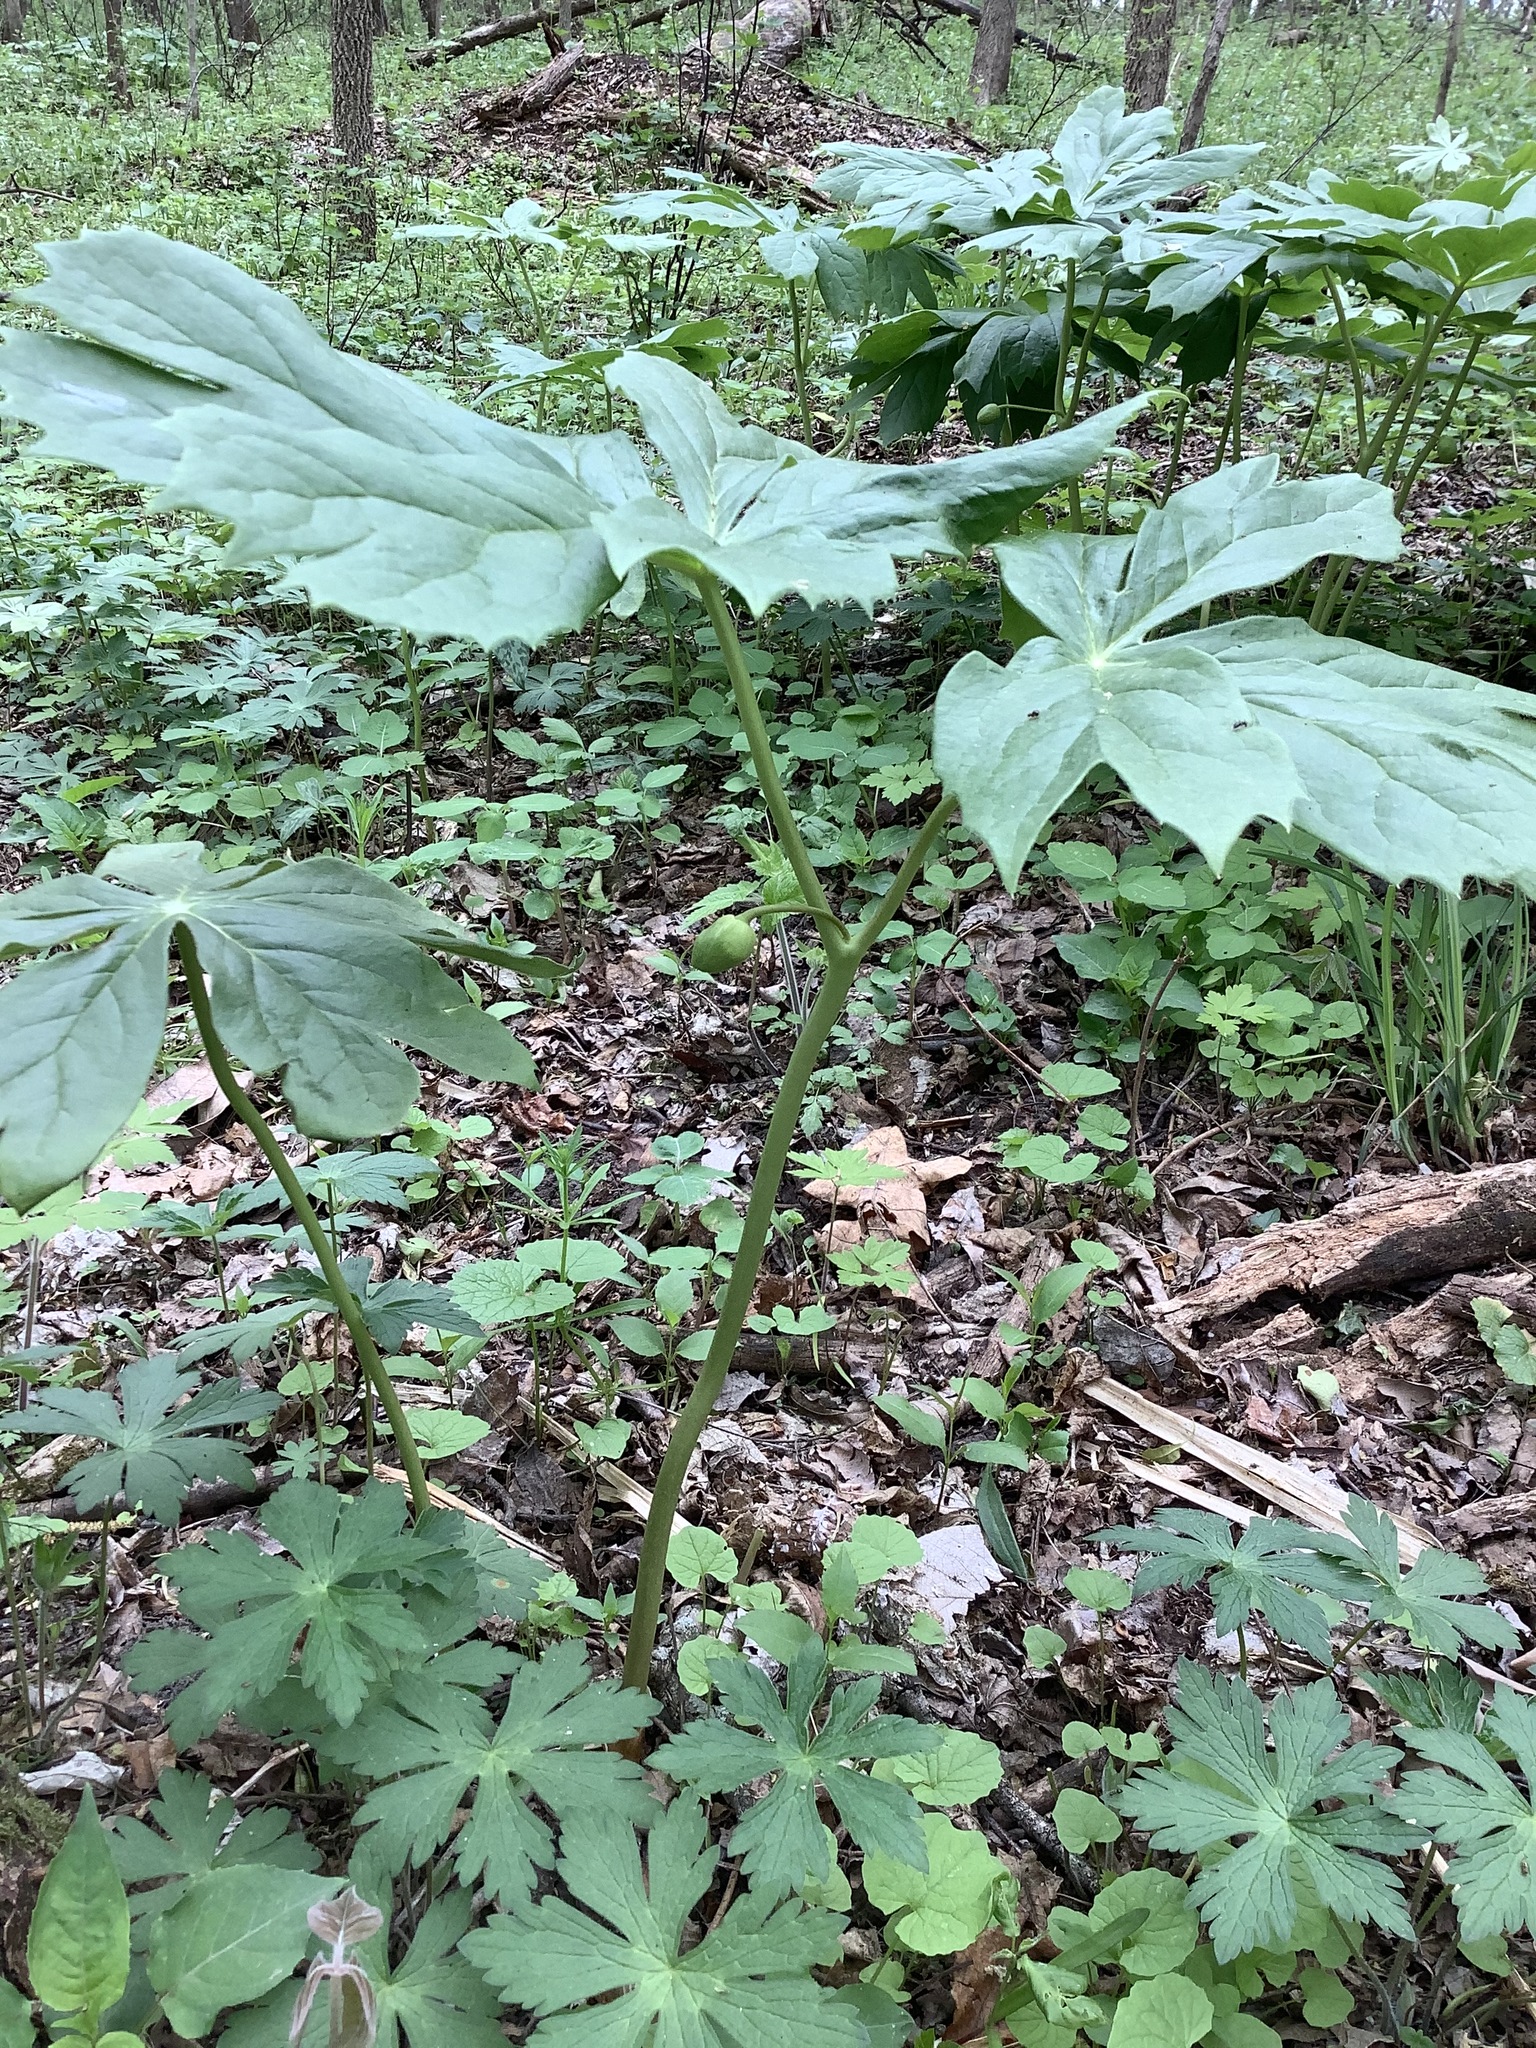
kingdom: Plantae
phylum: Tracheophyta
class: Magnoliopsida
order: Ranunculales
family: Berberidaceae
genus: Podophyllum
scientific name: Podophyllum peltatum
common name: Wild mandrake
